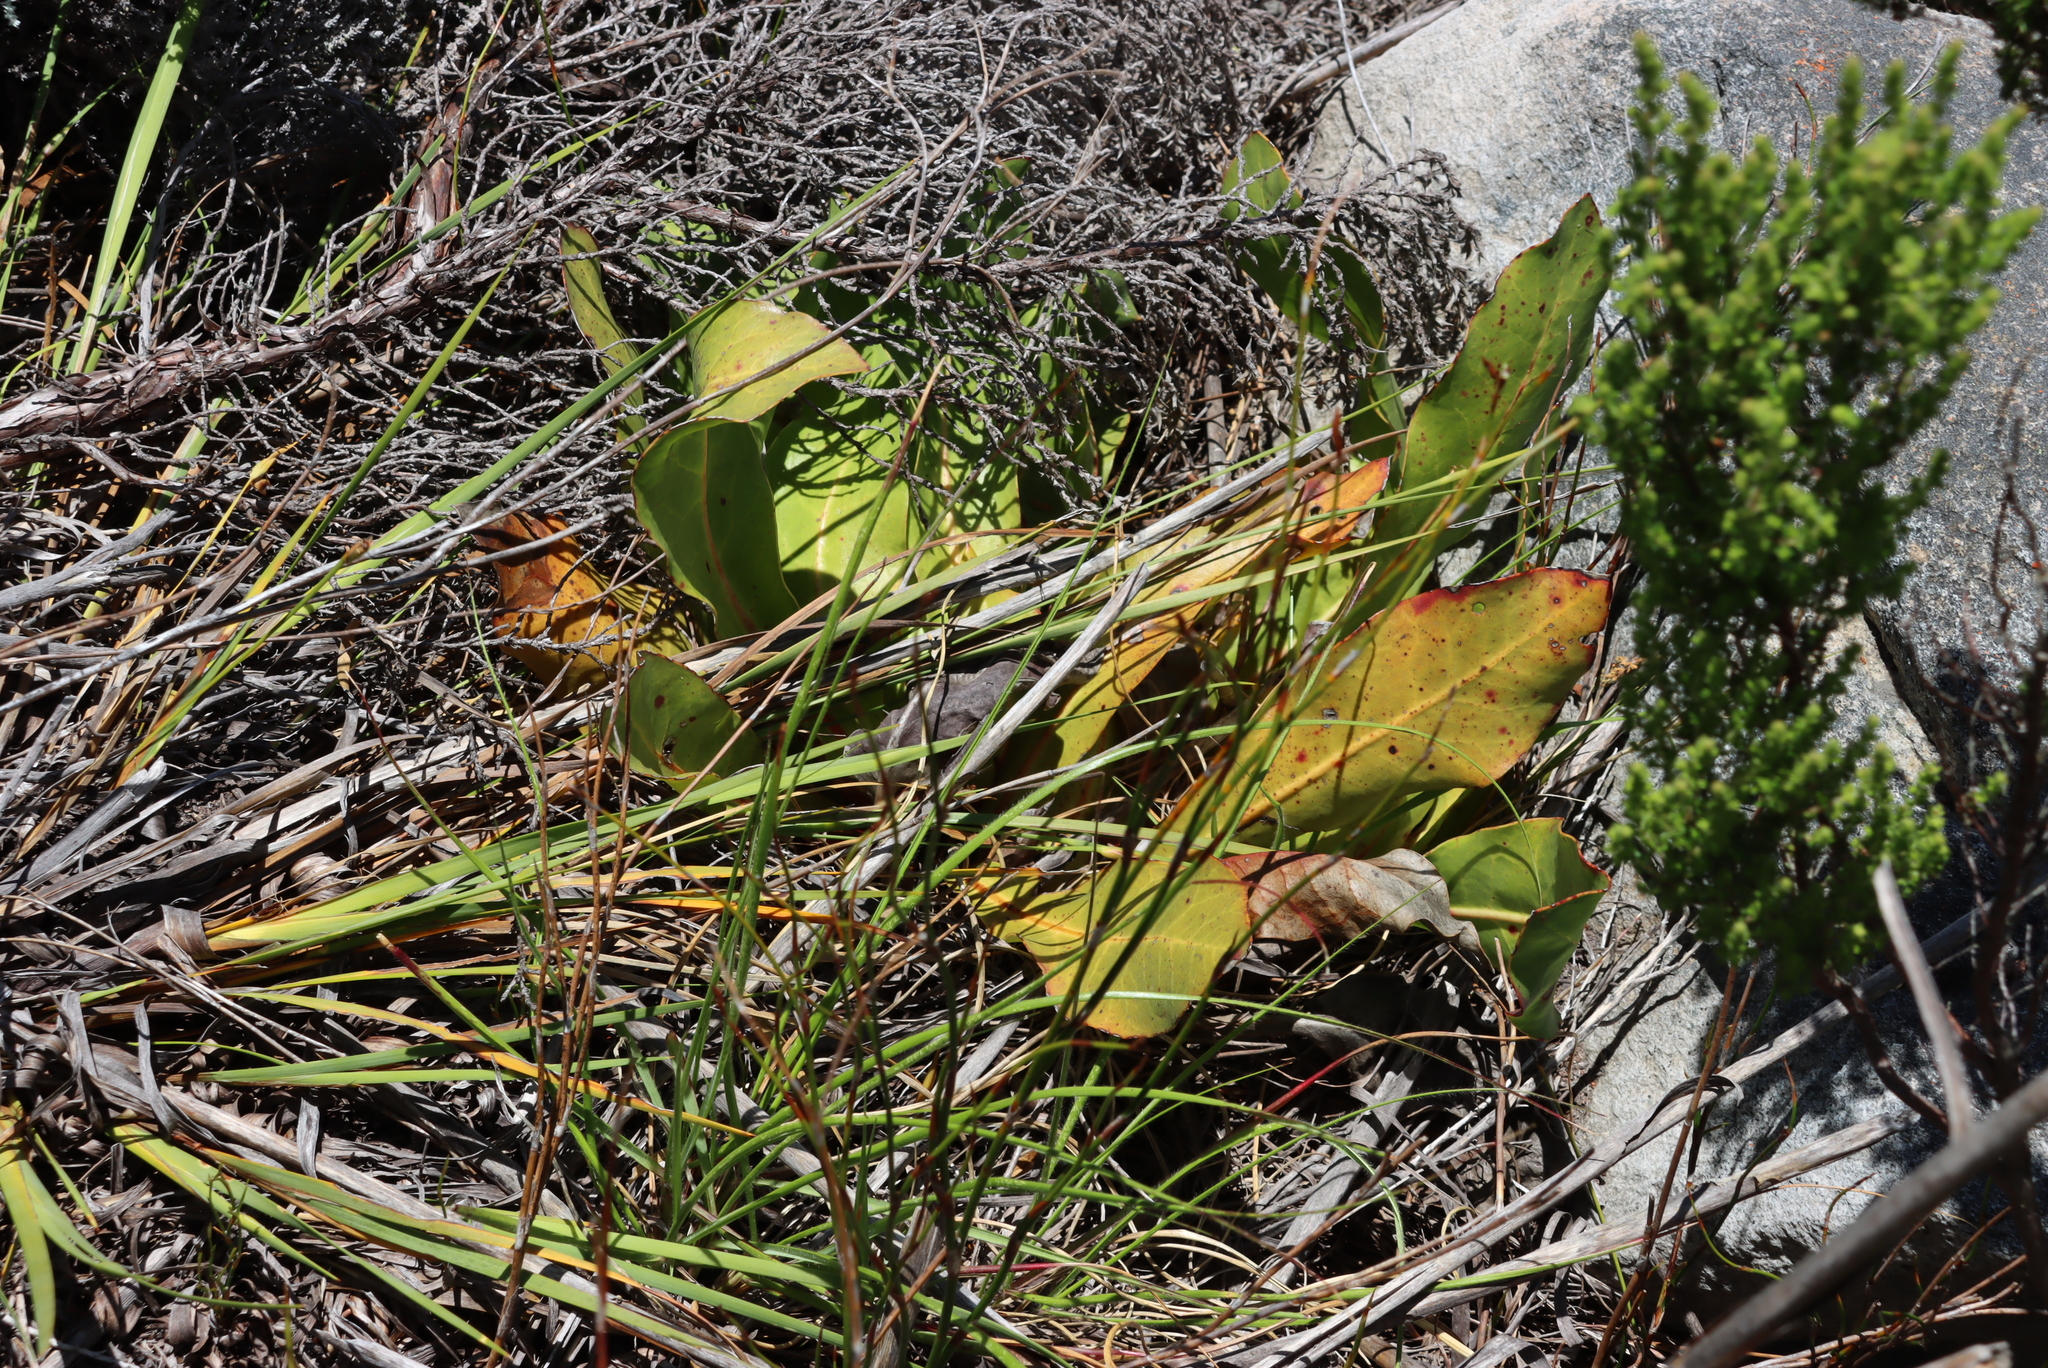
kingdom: Plantae
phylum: Tracheophyta
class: Magnoliopsida
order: Proteales
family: Proteaceae
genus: Protea
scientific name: Protea caespitosa
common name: Bishop sugarbush
